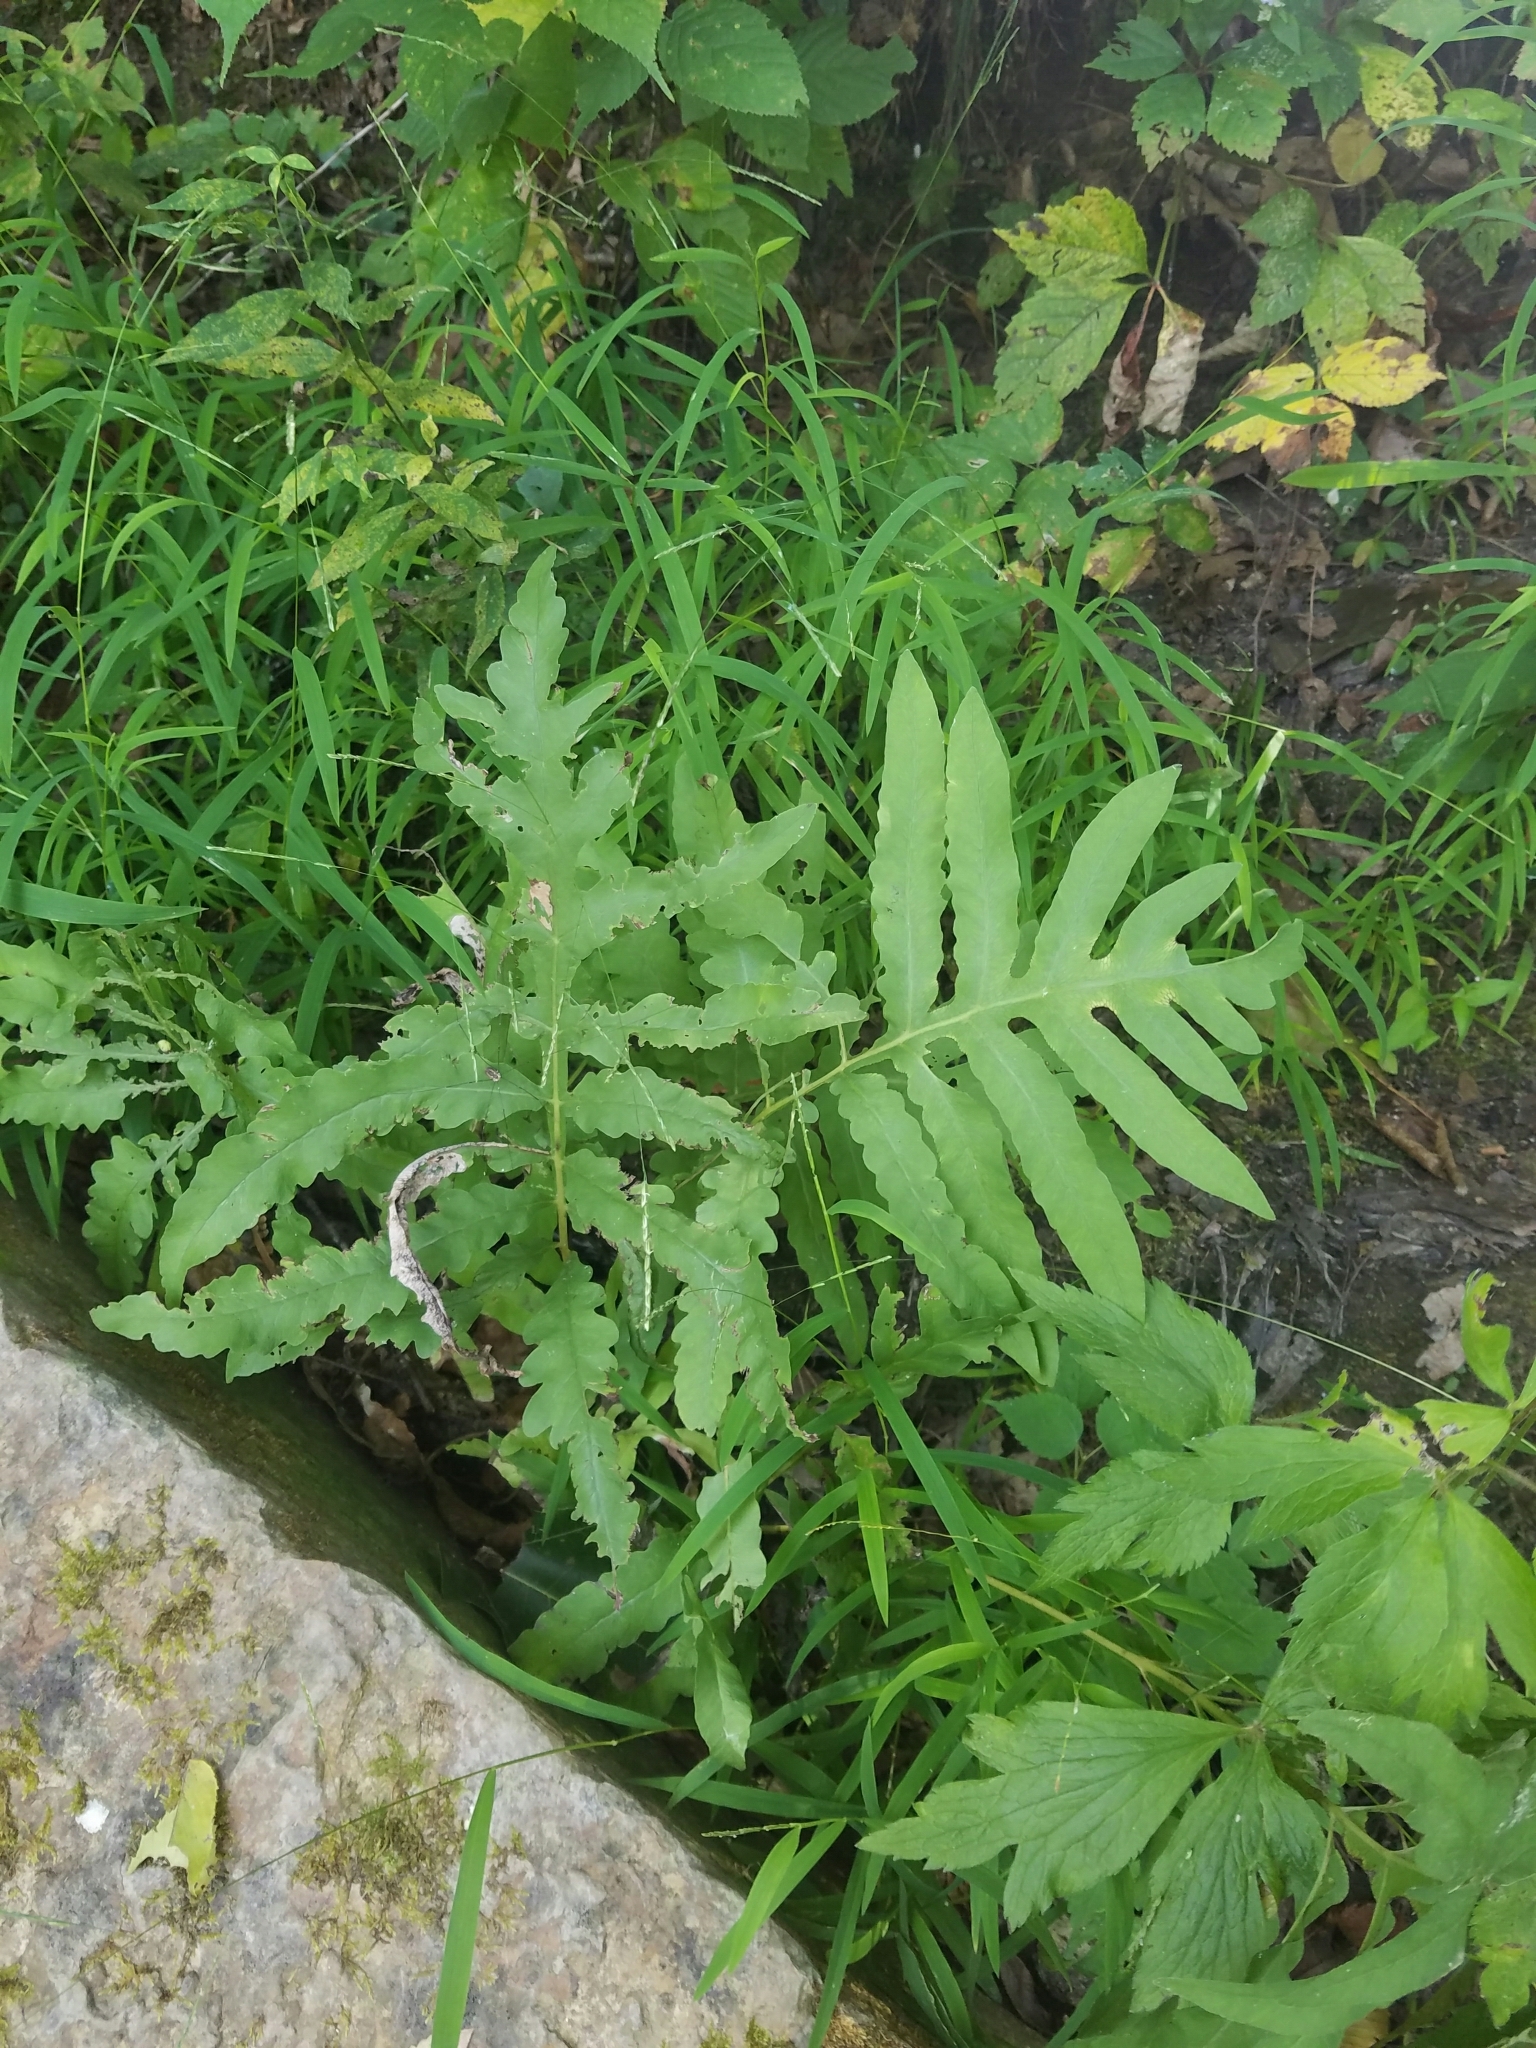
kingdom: Plantae
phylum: Tracheophyta
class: Polypodiopsida
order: Polypodiales
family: Onocleaceae
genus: Onoclea
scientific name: Onoclea sensibilis
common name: Sensitive fern
